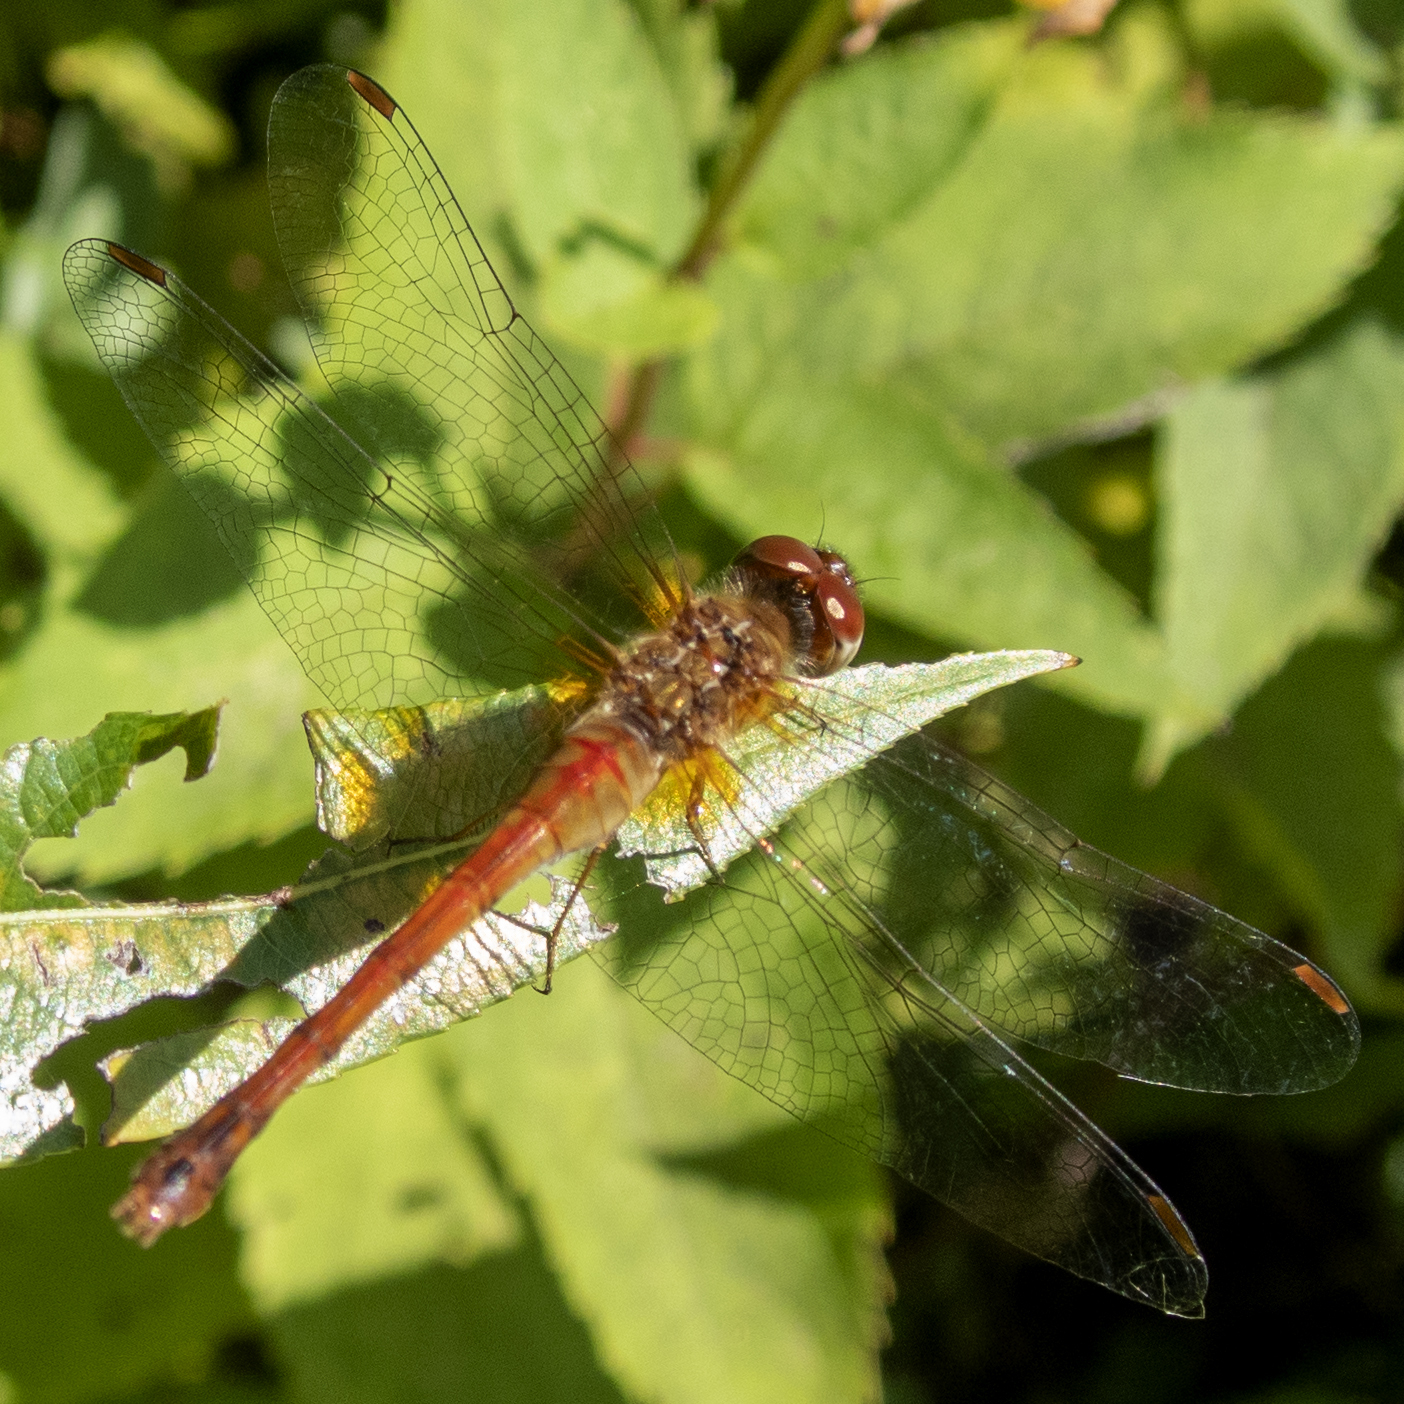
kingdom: Animalia
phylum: Arthropoda
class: Insecta
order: Odonata
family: Libellulidae
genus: Sympetrum
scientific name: Sympetrum vicinum
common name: Autumn meadowhawk
